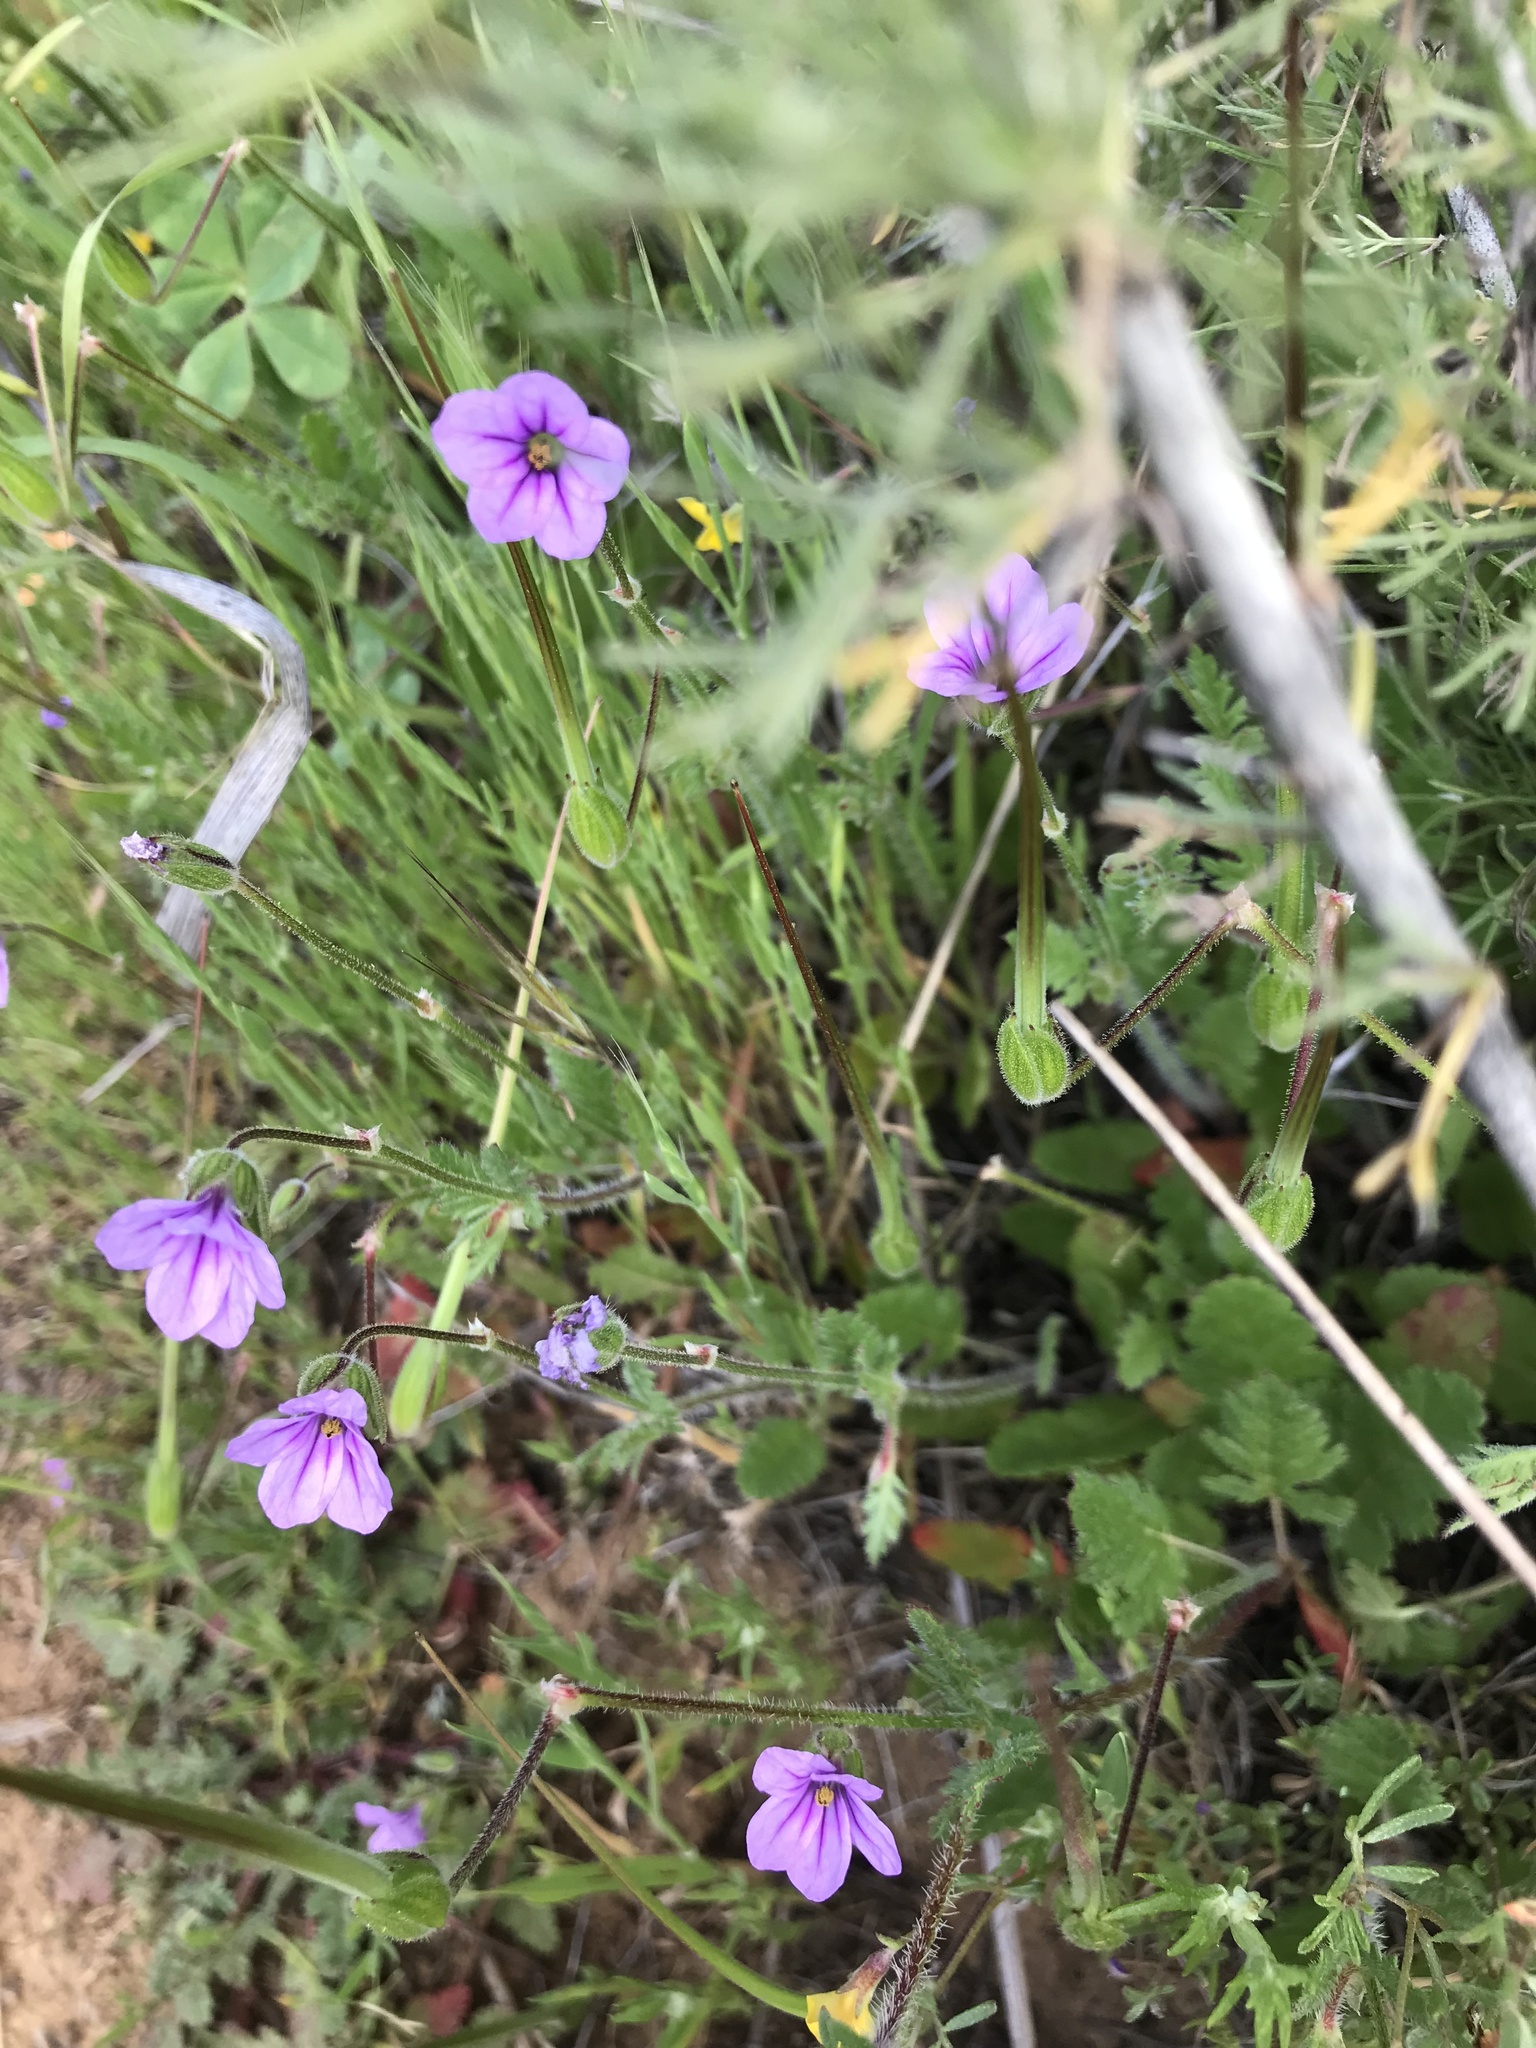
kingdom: Plantae
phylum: Tracheophyta
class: Magnoliopsida
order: Geraniales
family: Geraniaceae
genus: Erodium
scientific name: Erodium botrys
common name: Mediterranean stork's-bill
